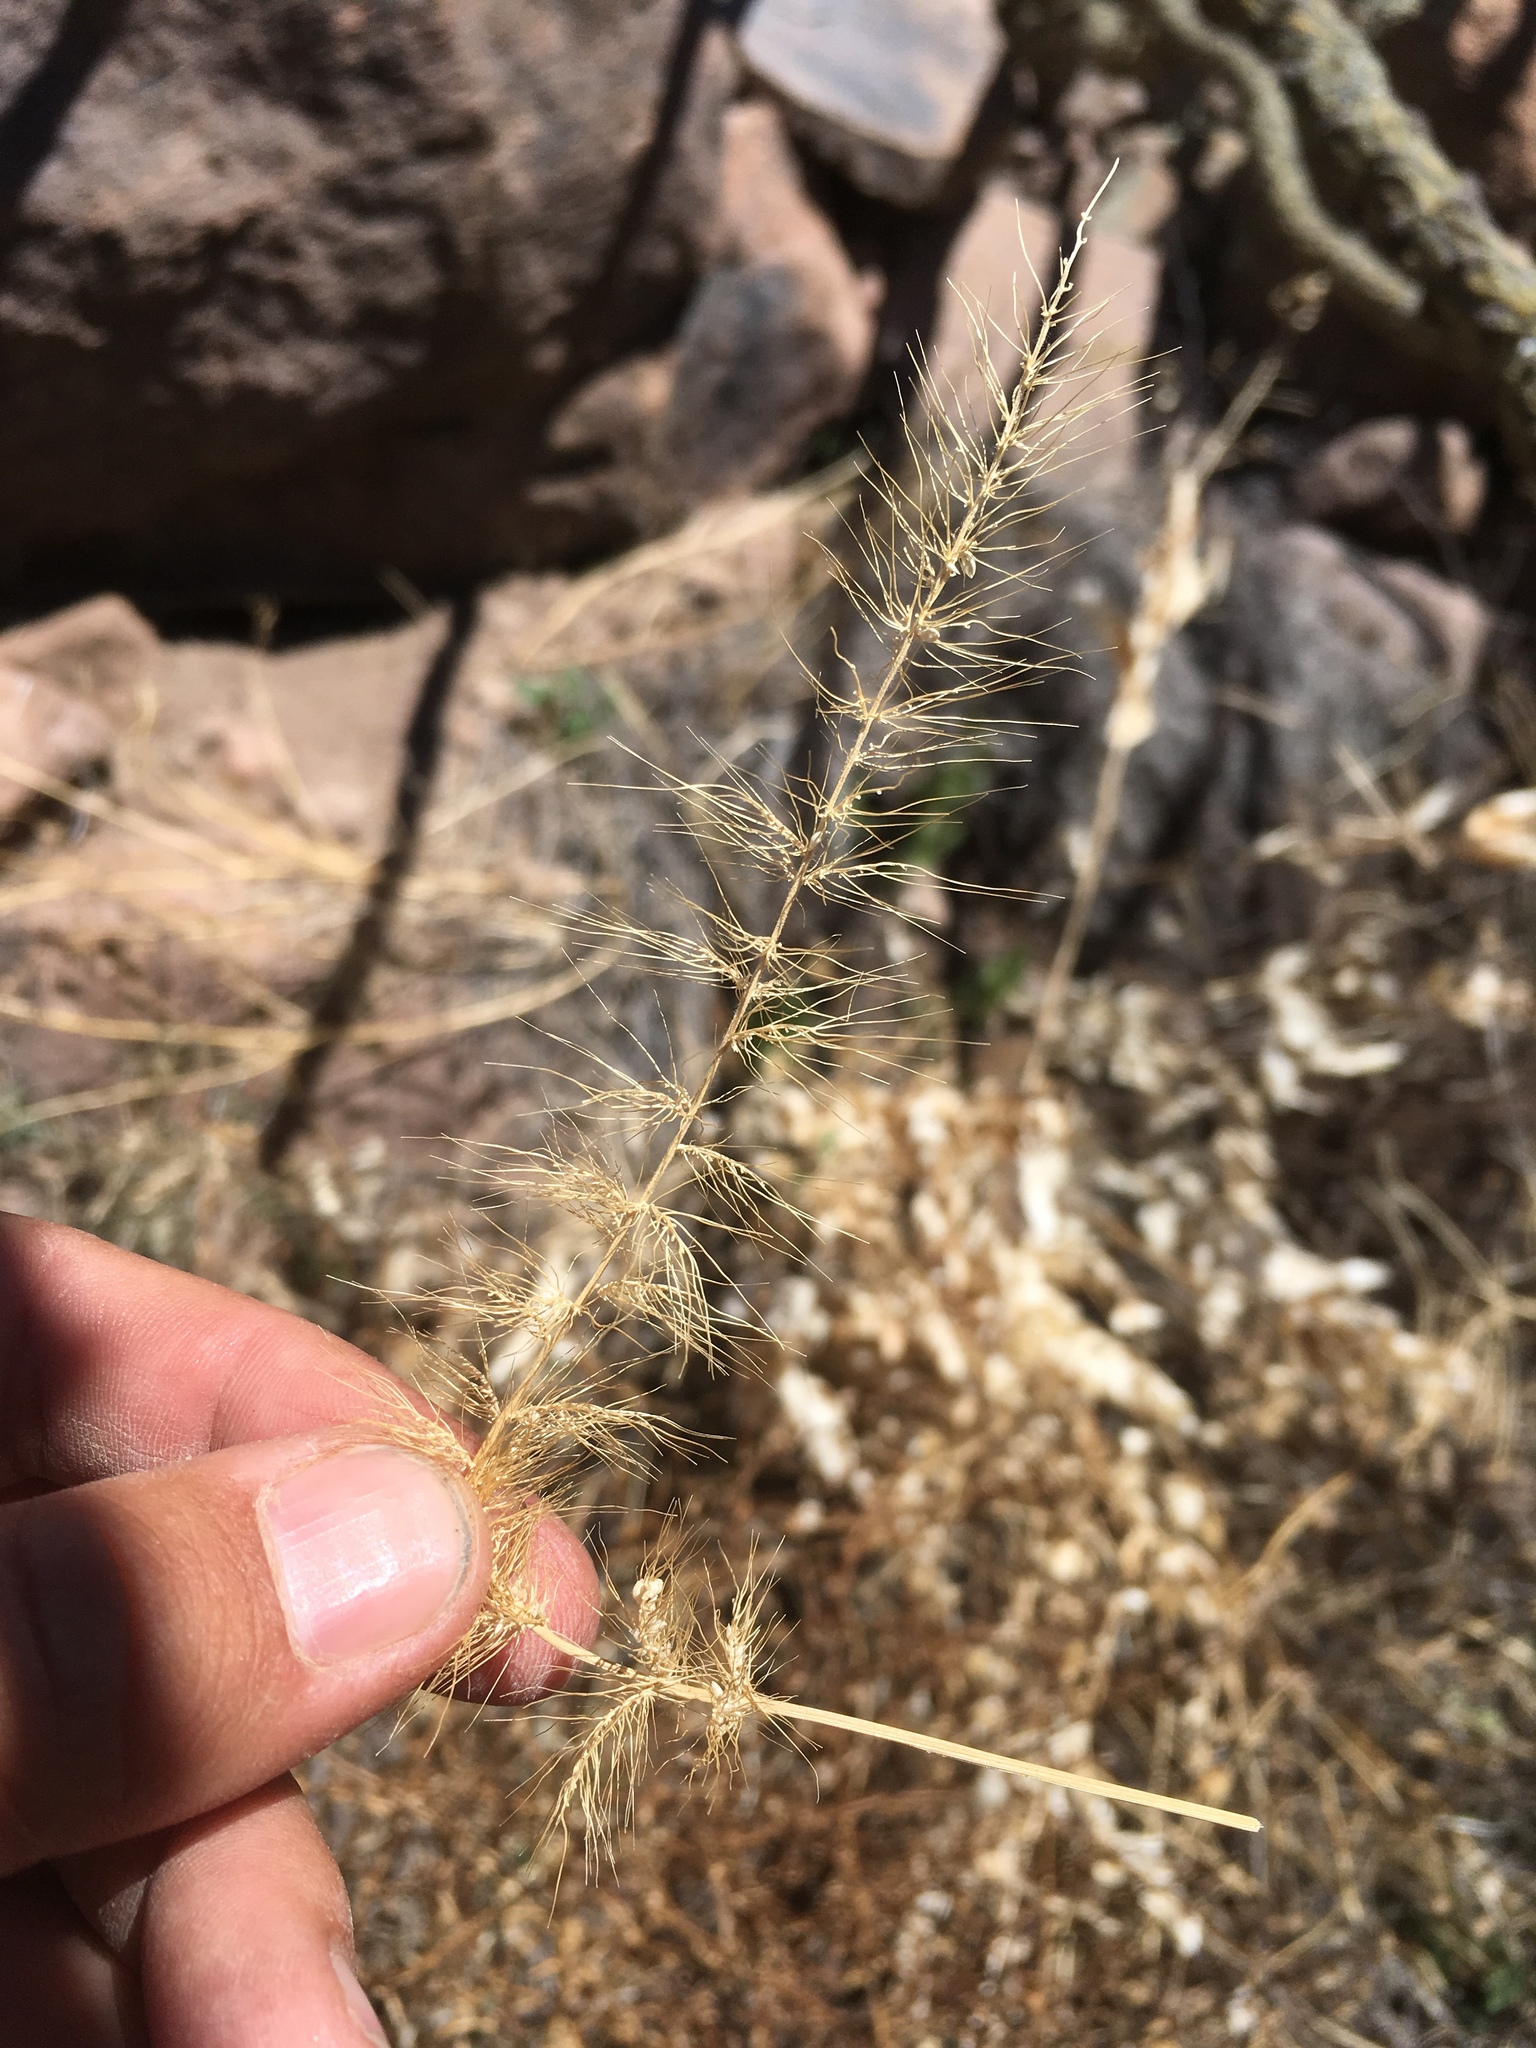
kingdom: Plantae
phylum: Tracheophyta
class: Liliopsida
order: Poales
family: Poaceae
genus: Setaria
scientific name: Setaria grisebachii
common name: Grisebach's bristle grass
